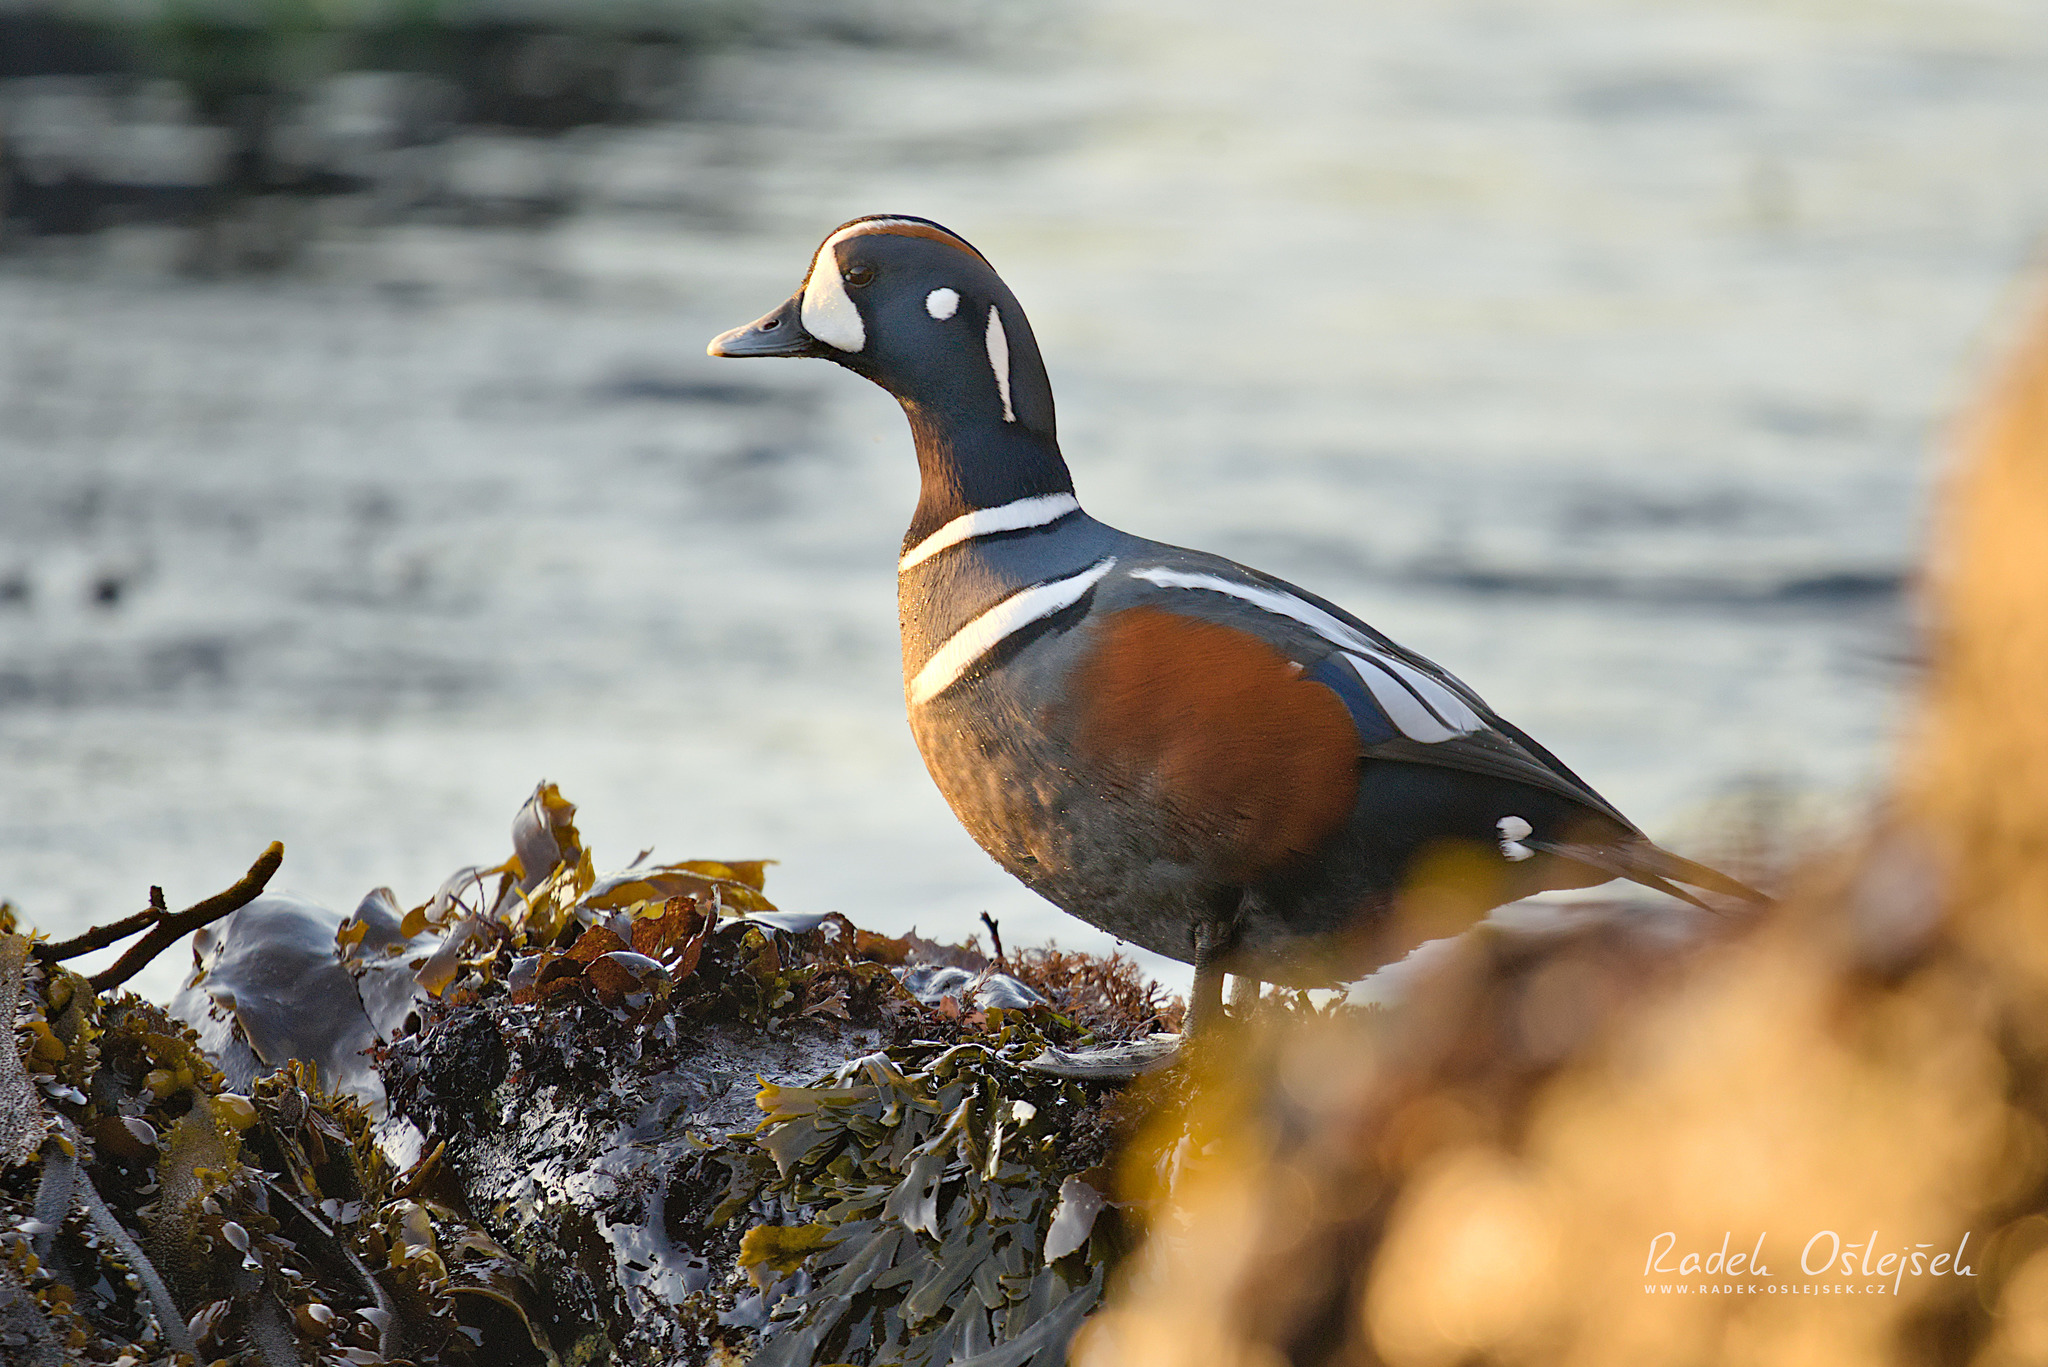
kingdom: Animalia
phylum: Chordata
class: Aves
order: Anseriformes
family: Anatidae
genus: Histrionicus
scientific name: Histrionicus histrionicus
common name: Harlequin duck
